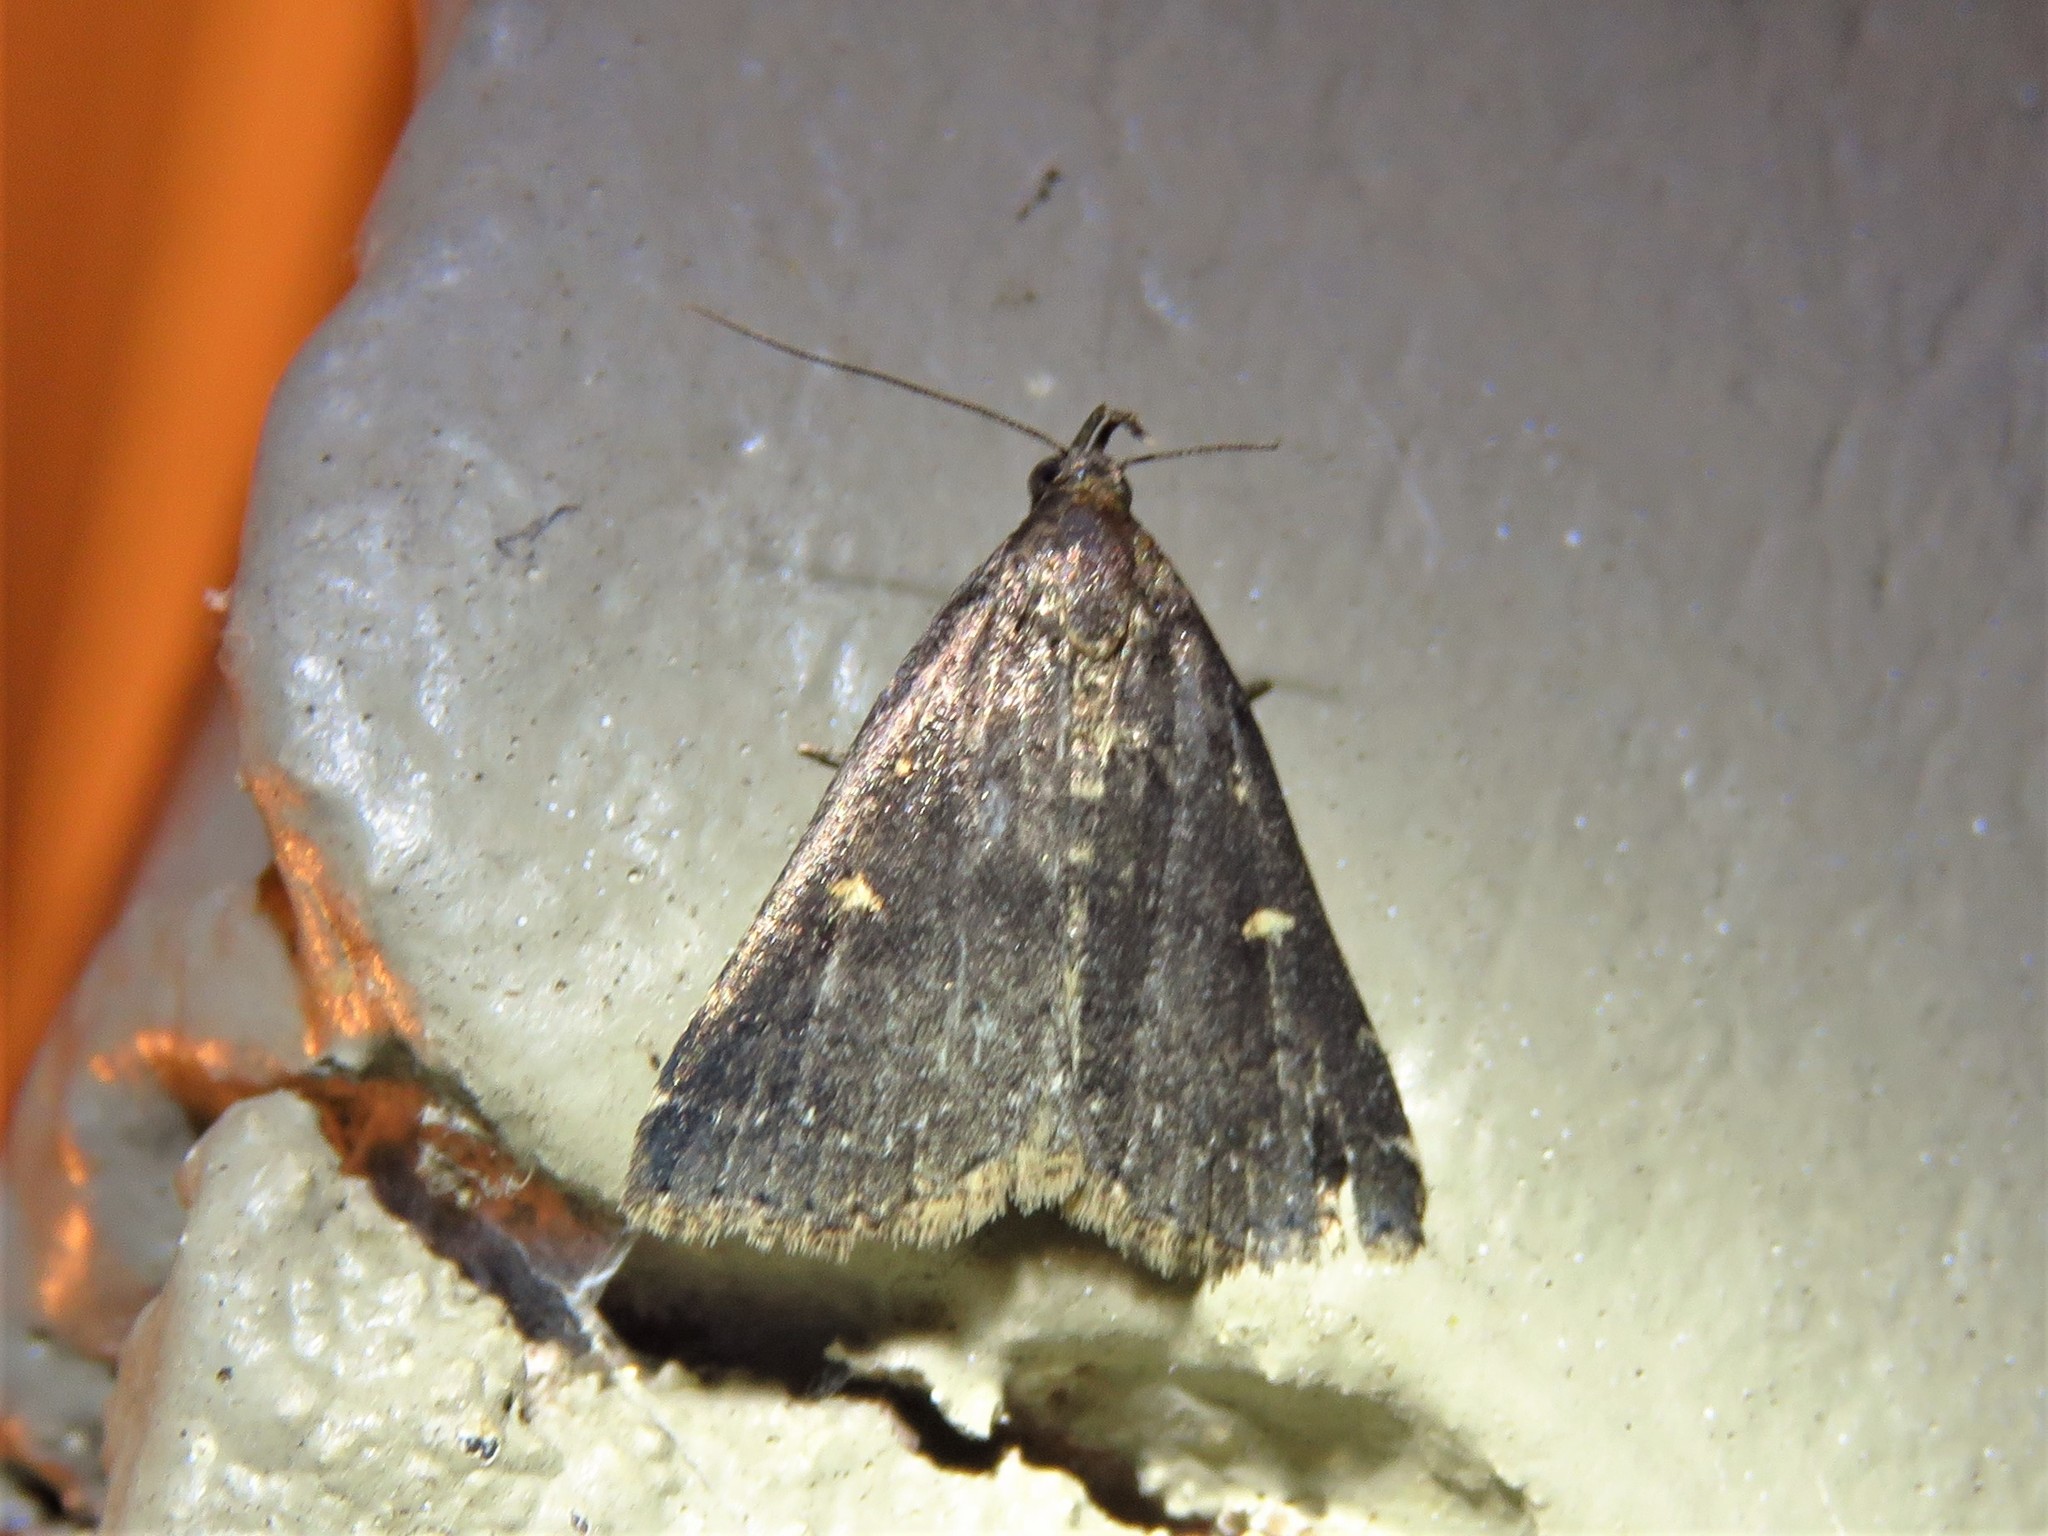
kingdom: Animalia
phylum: Arthropoda
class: Insecta
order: Lepidoptera
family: Erebidae
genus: Tetanolita
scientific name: Tetanolita mynesalis
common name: Smoky tetanolita moth
